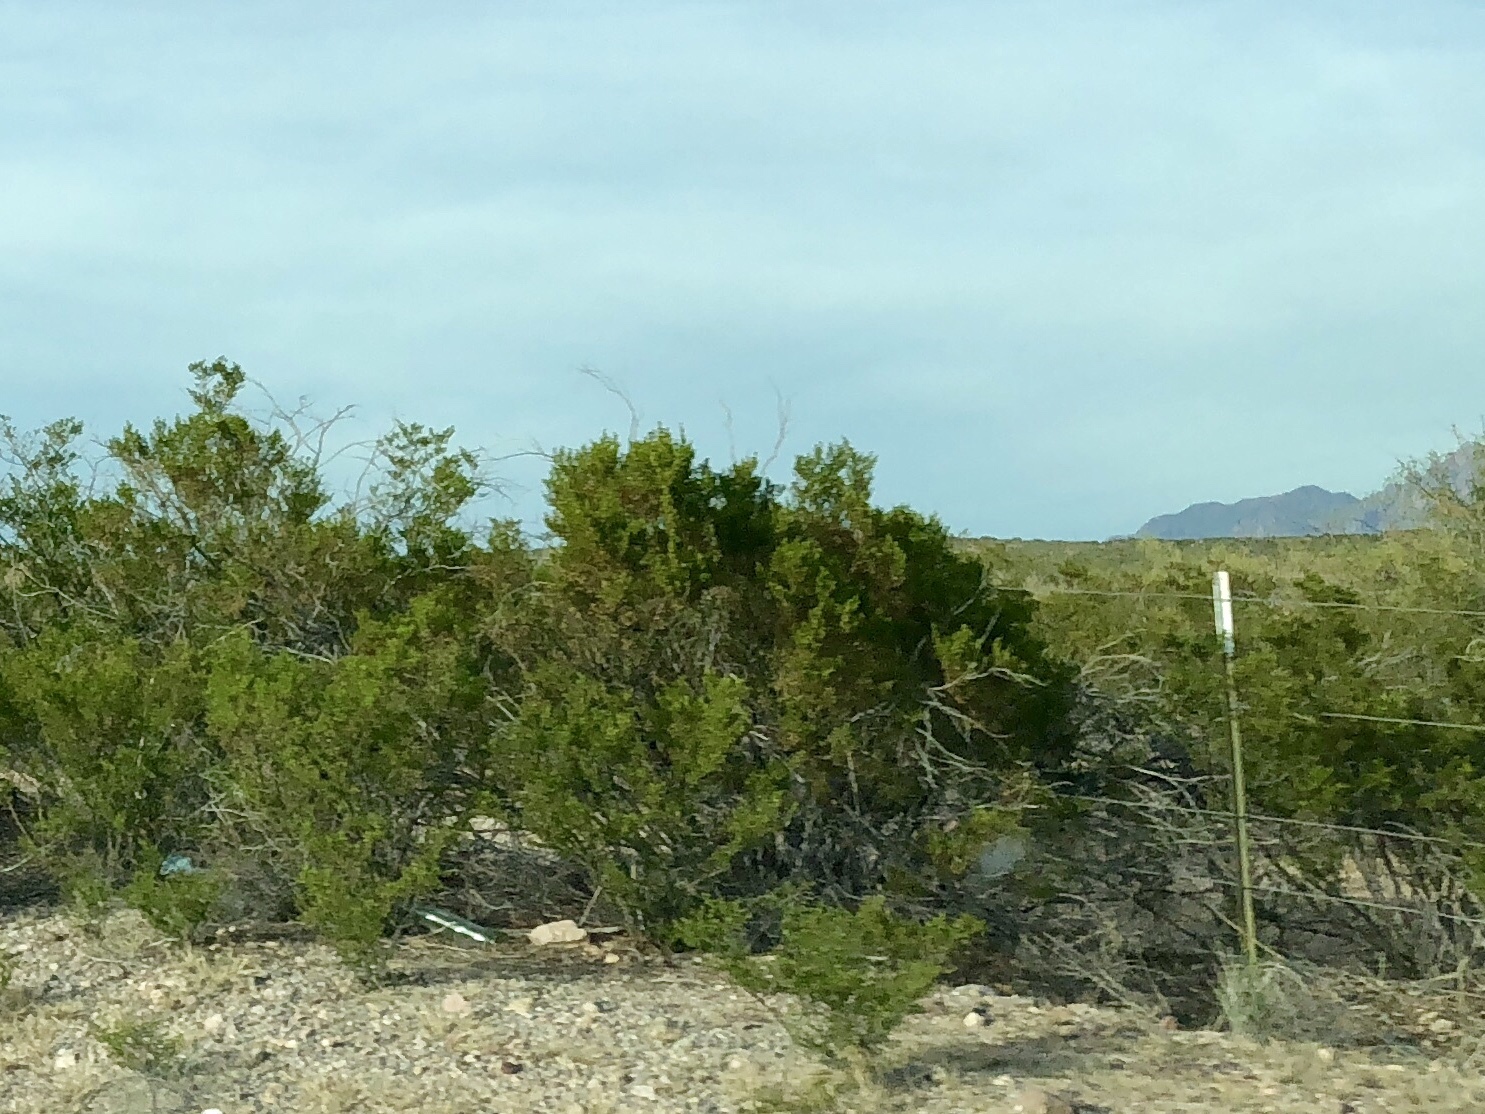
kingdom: Plantae
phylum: Tracheophyta
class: Magnoliopsida
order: Zygophyllales
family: Zygophyllaceae
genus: Larrea
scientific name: Larrea tridentata
